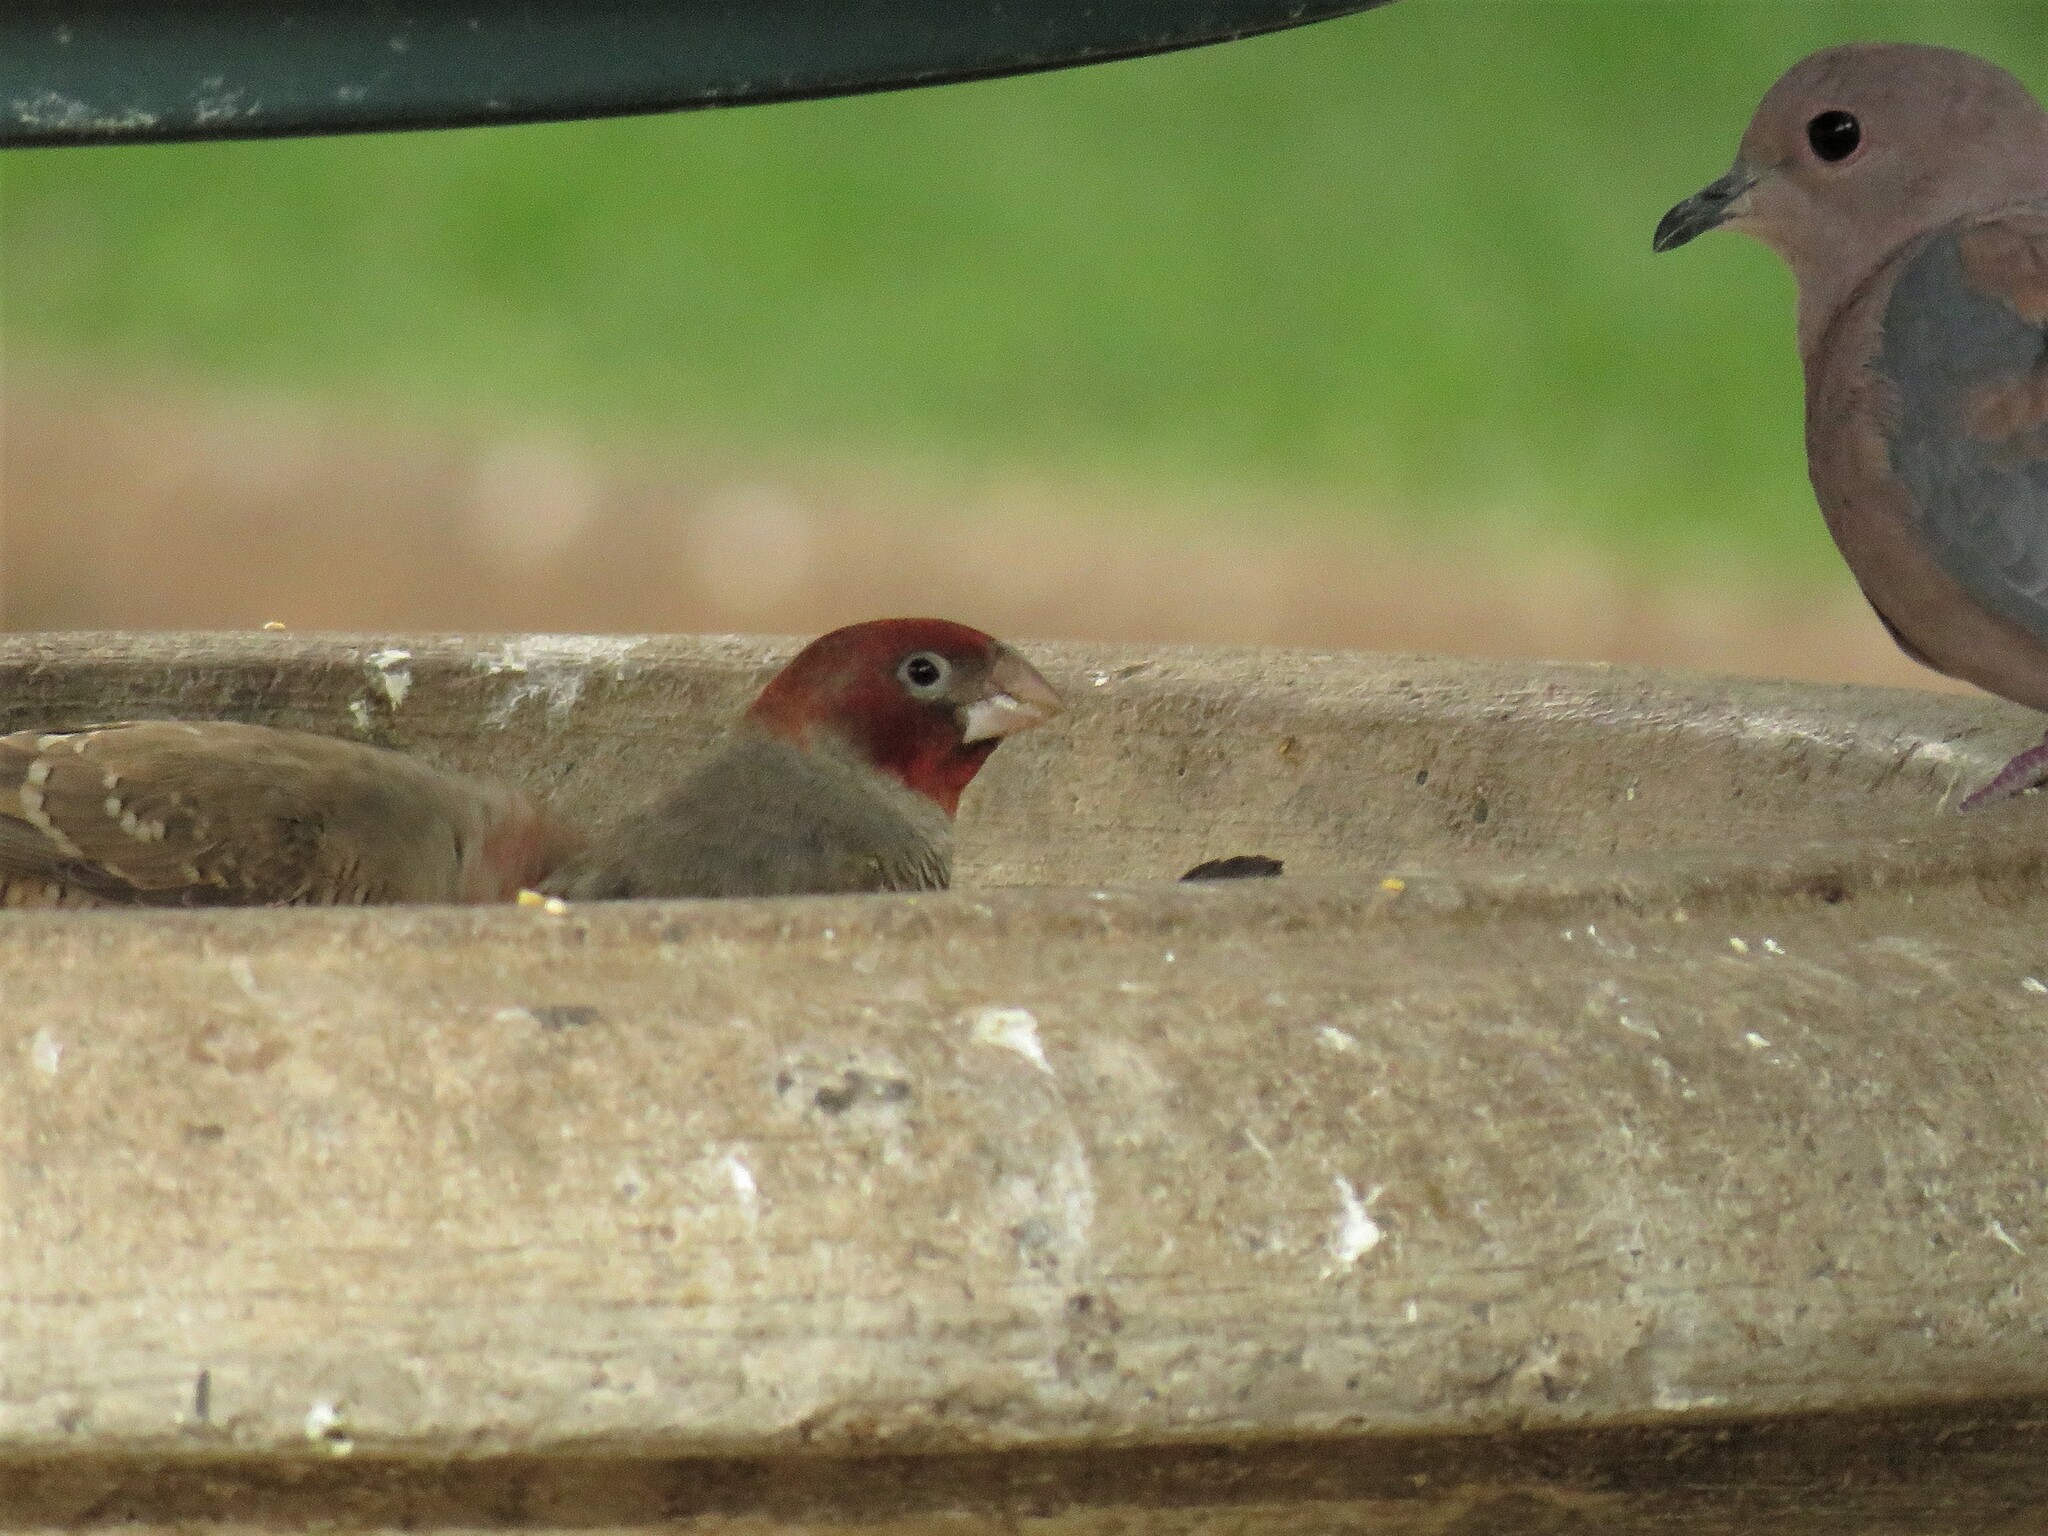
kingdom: Animalia
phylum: Chordata
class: Aves
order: Passeriformes
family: Estrildidae
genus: Amadina
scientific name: Amadina erythrocephala
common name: Red-headed finch
